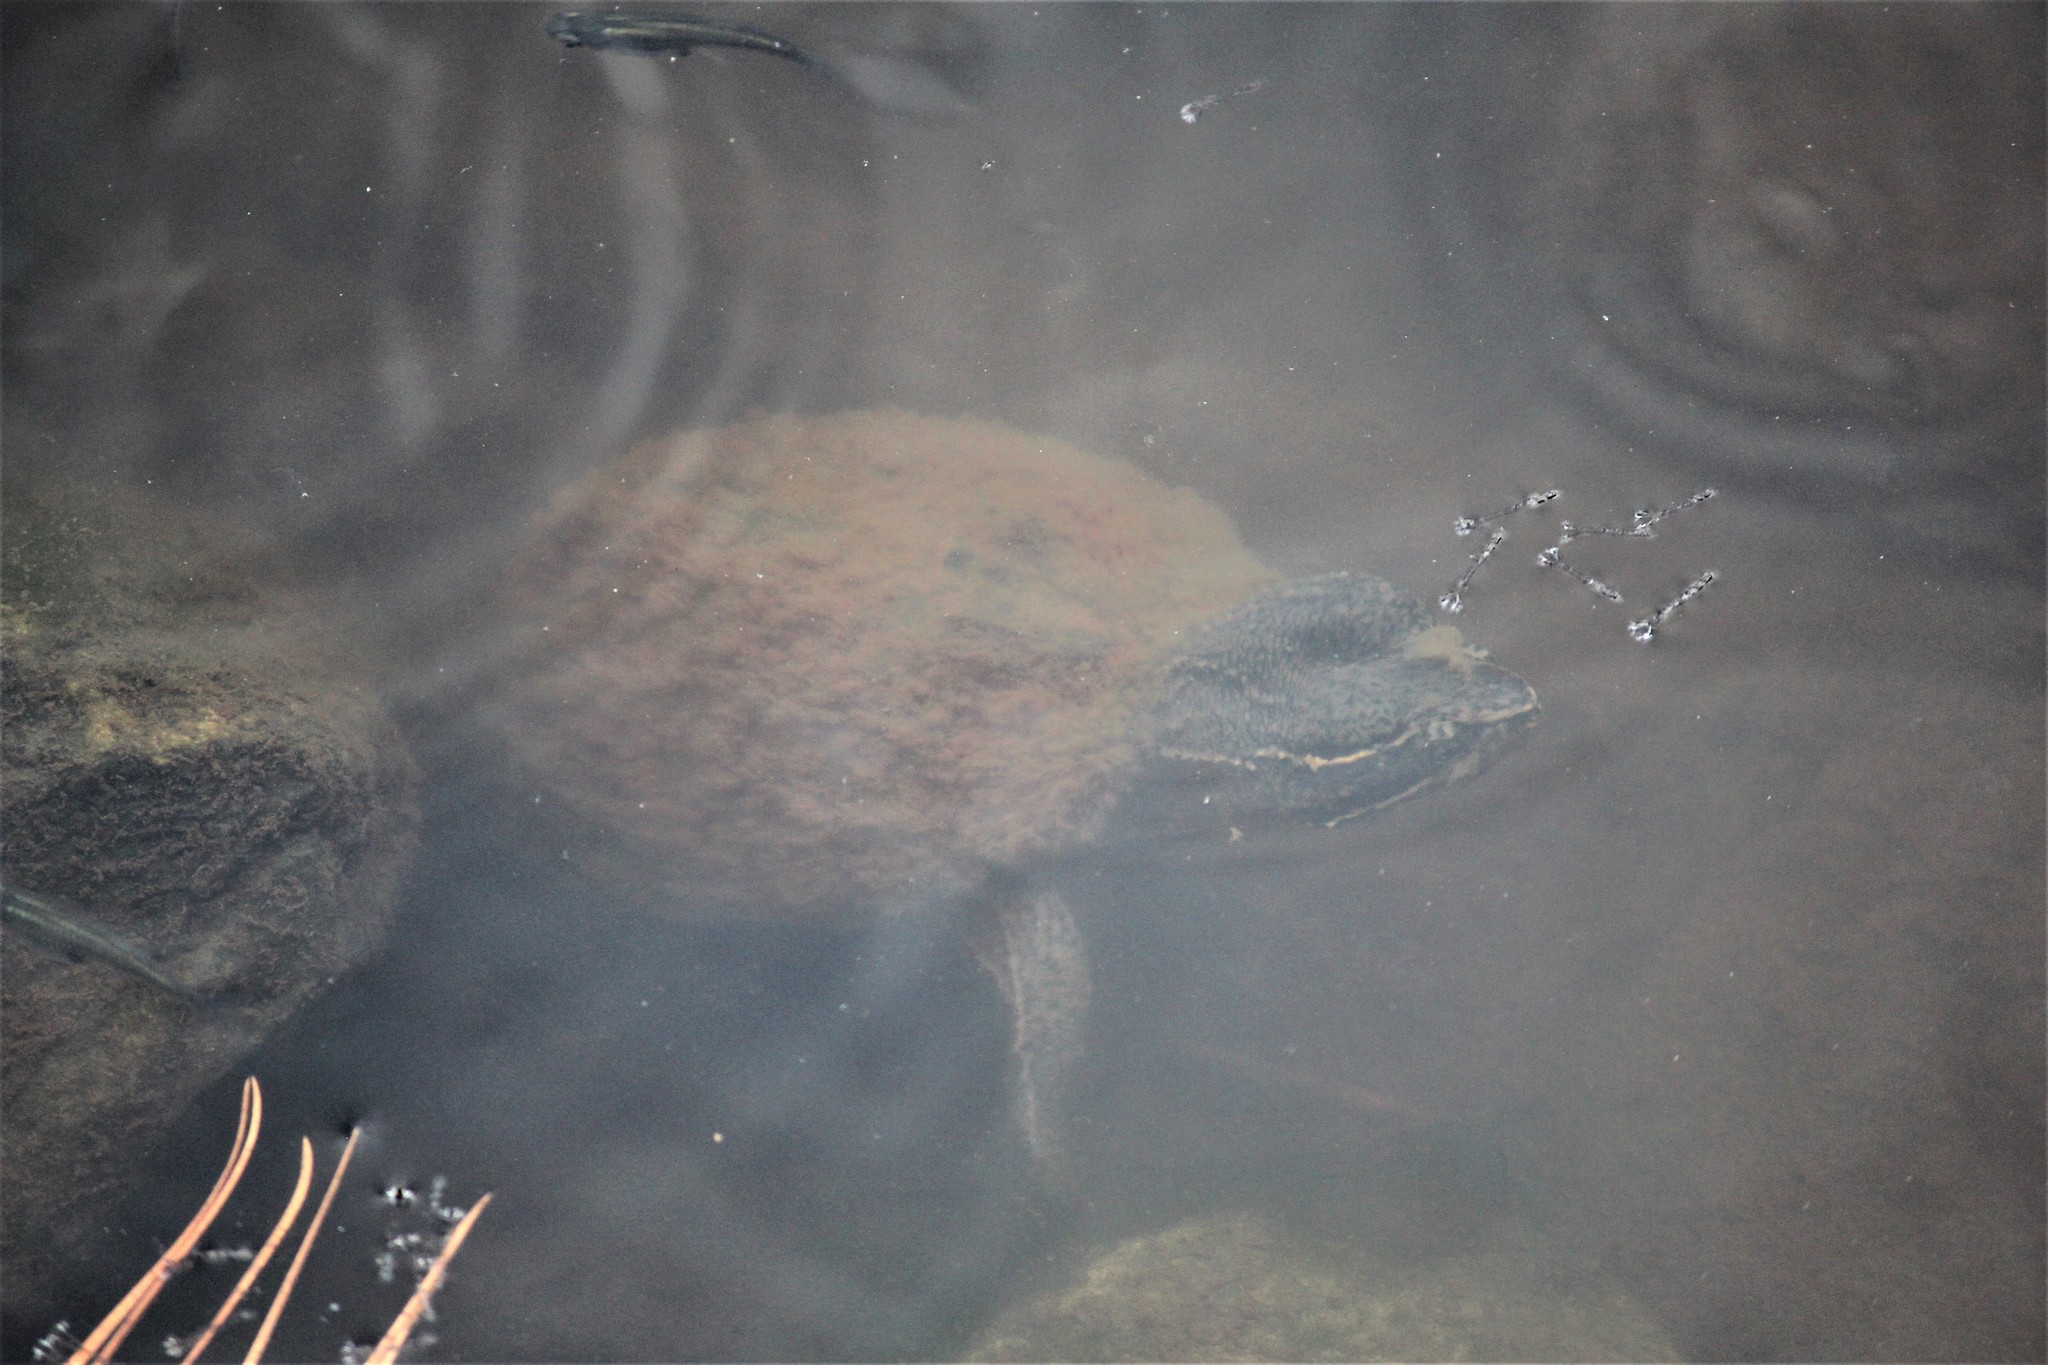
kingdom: Animalia
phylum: Chordata
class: Testudines
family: Kinosternidae
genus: Sternotherus
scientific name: Sternotherus odoratus
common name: Common musk turtle
